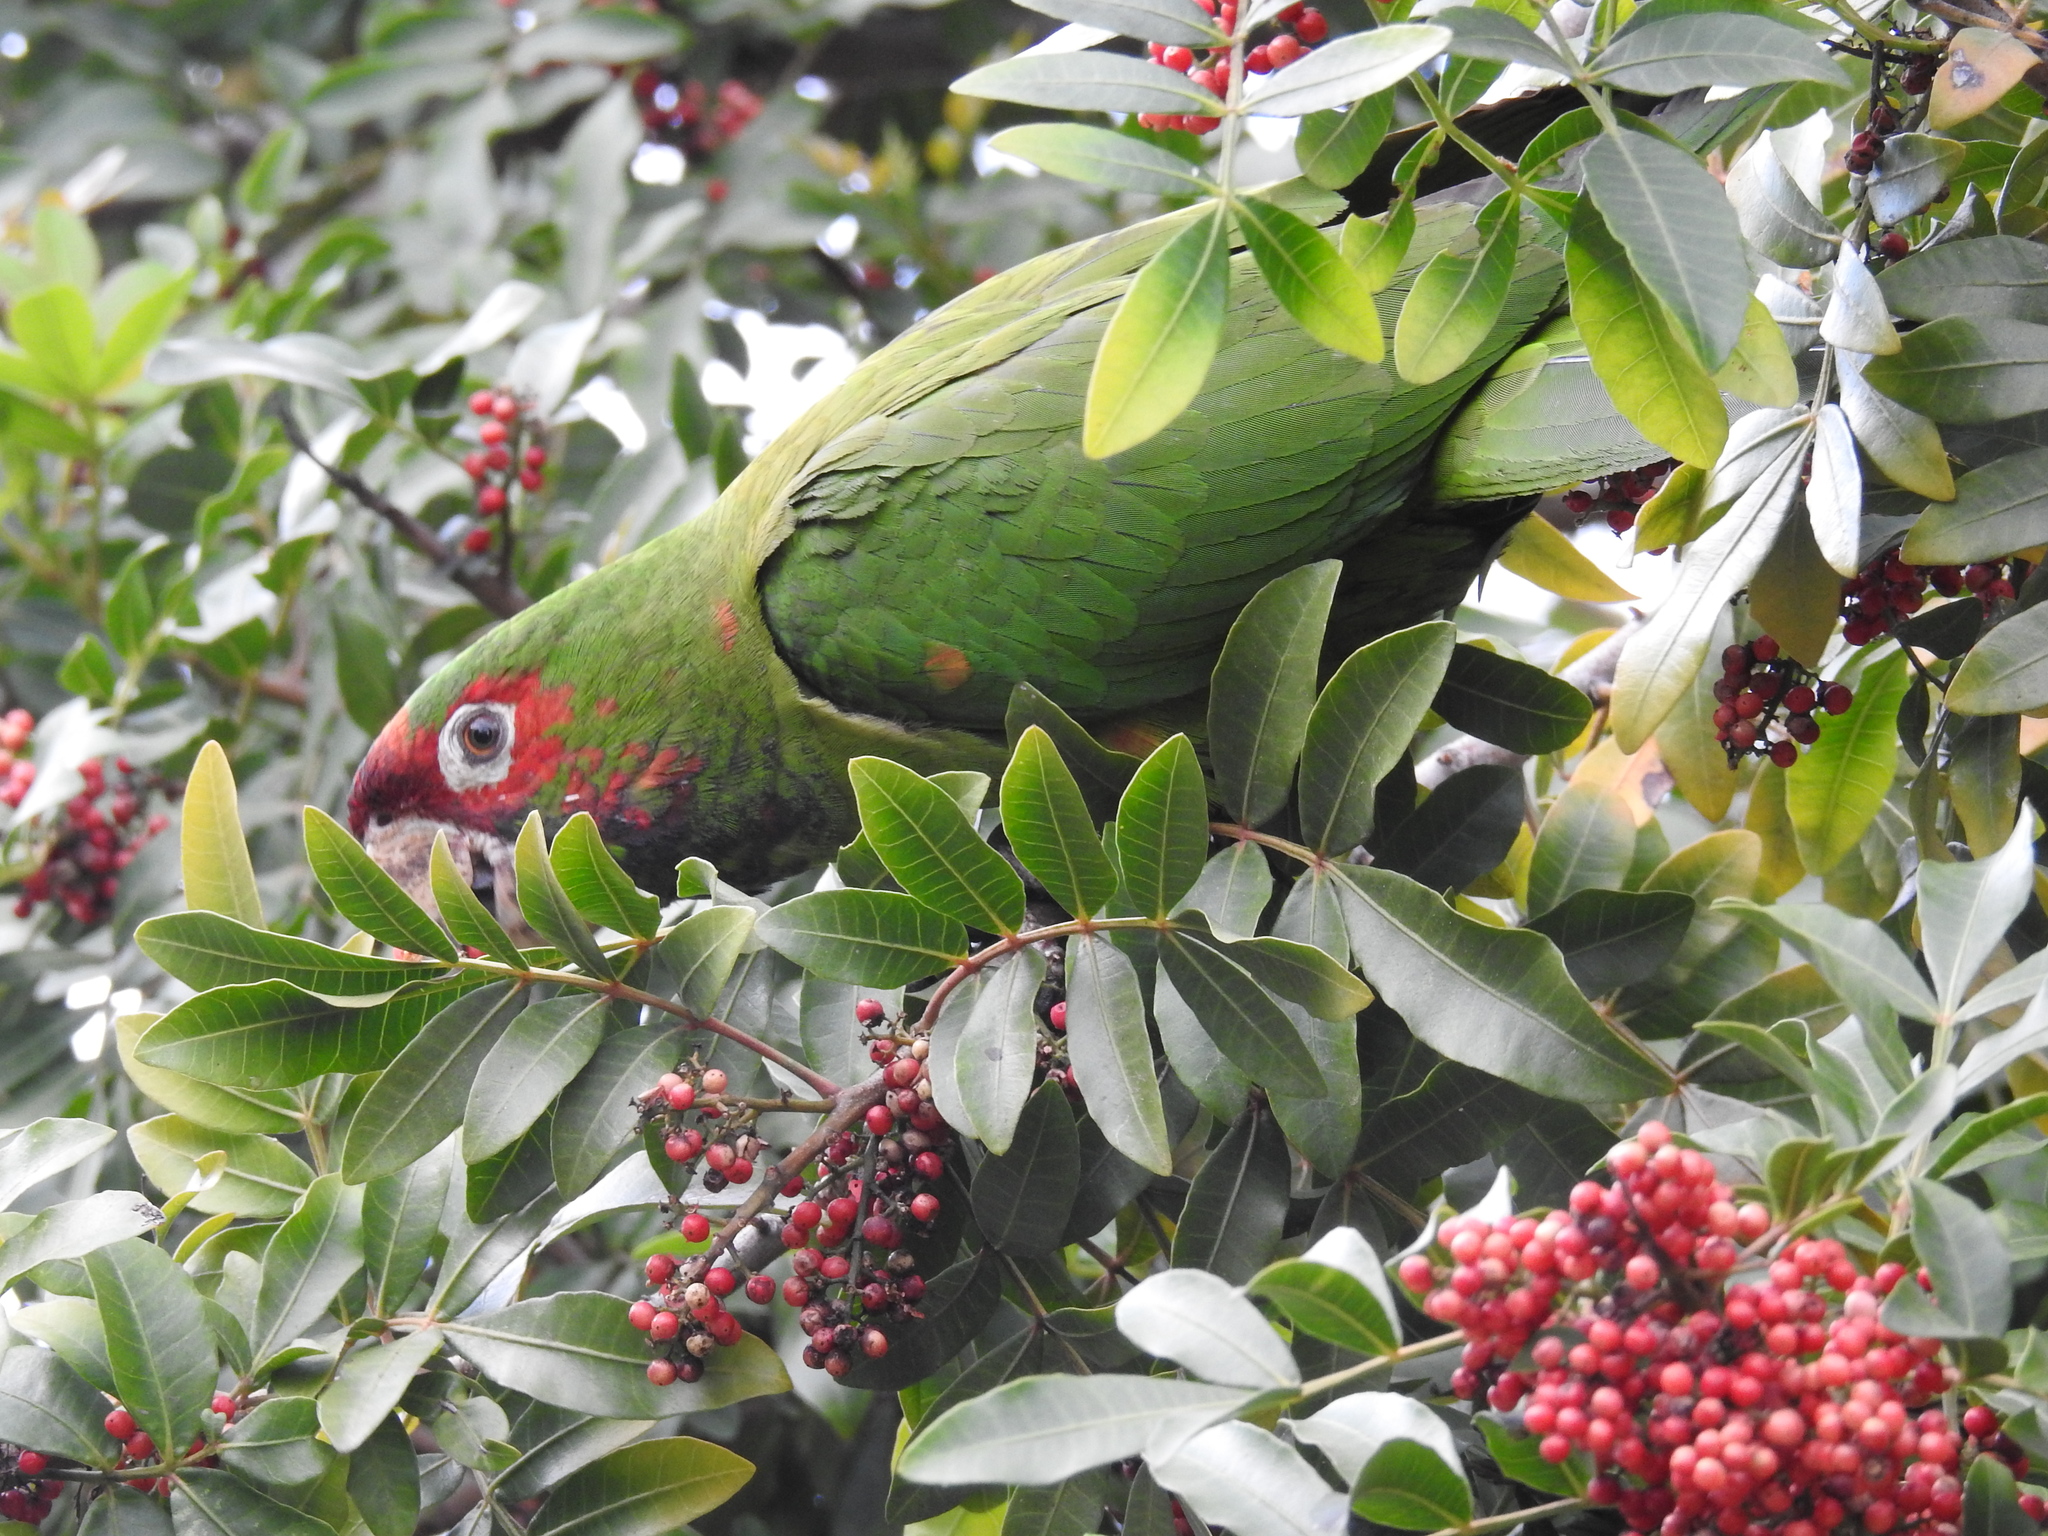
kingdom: Animalia
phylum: Chordata
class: Aves
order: Psittaciformes
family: Psittacidae
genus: Aratinga
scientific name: Aratinga mitrata
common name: Mitred parakeet
